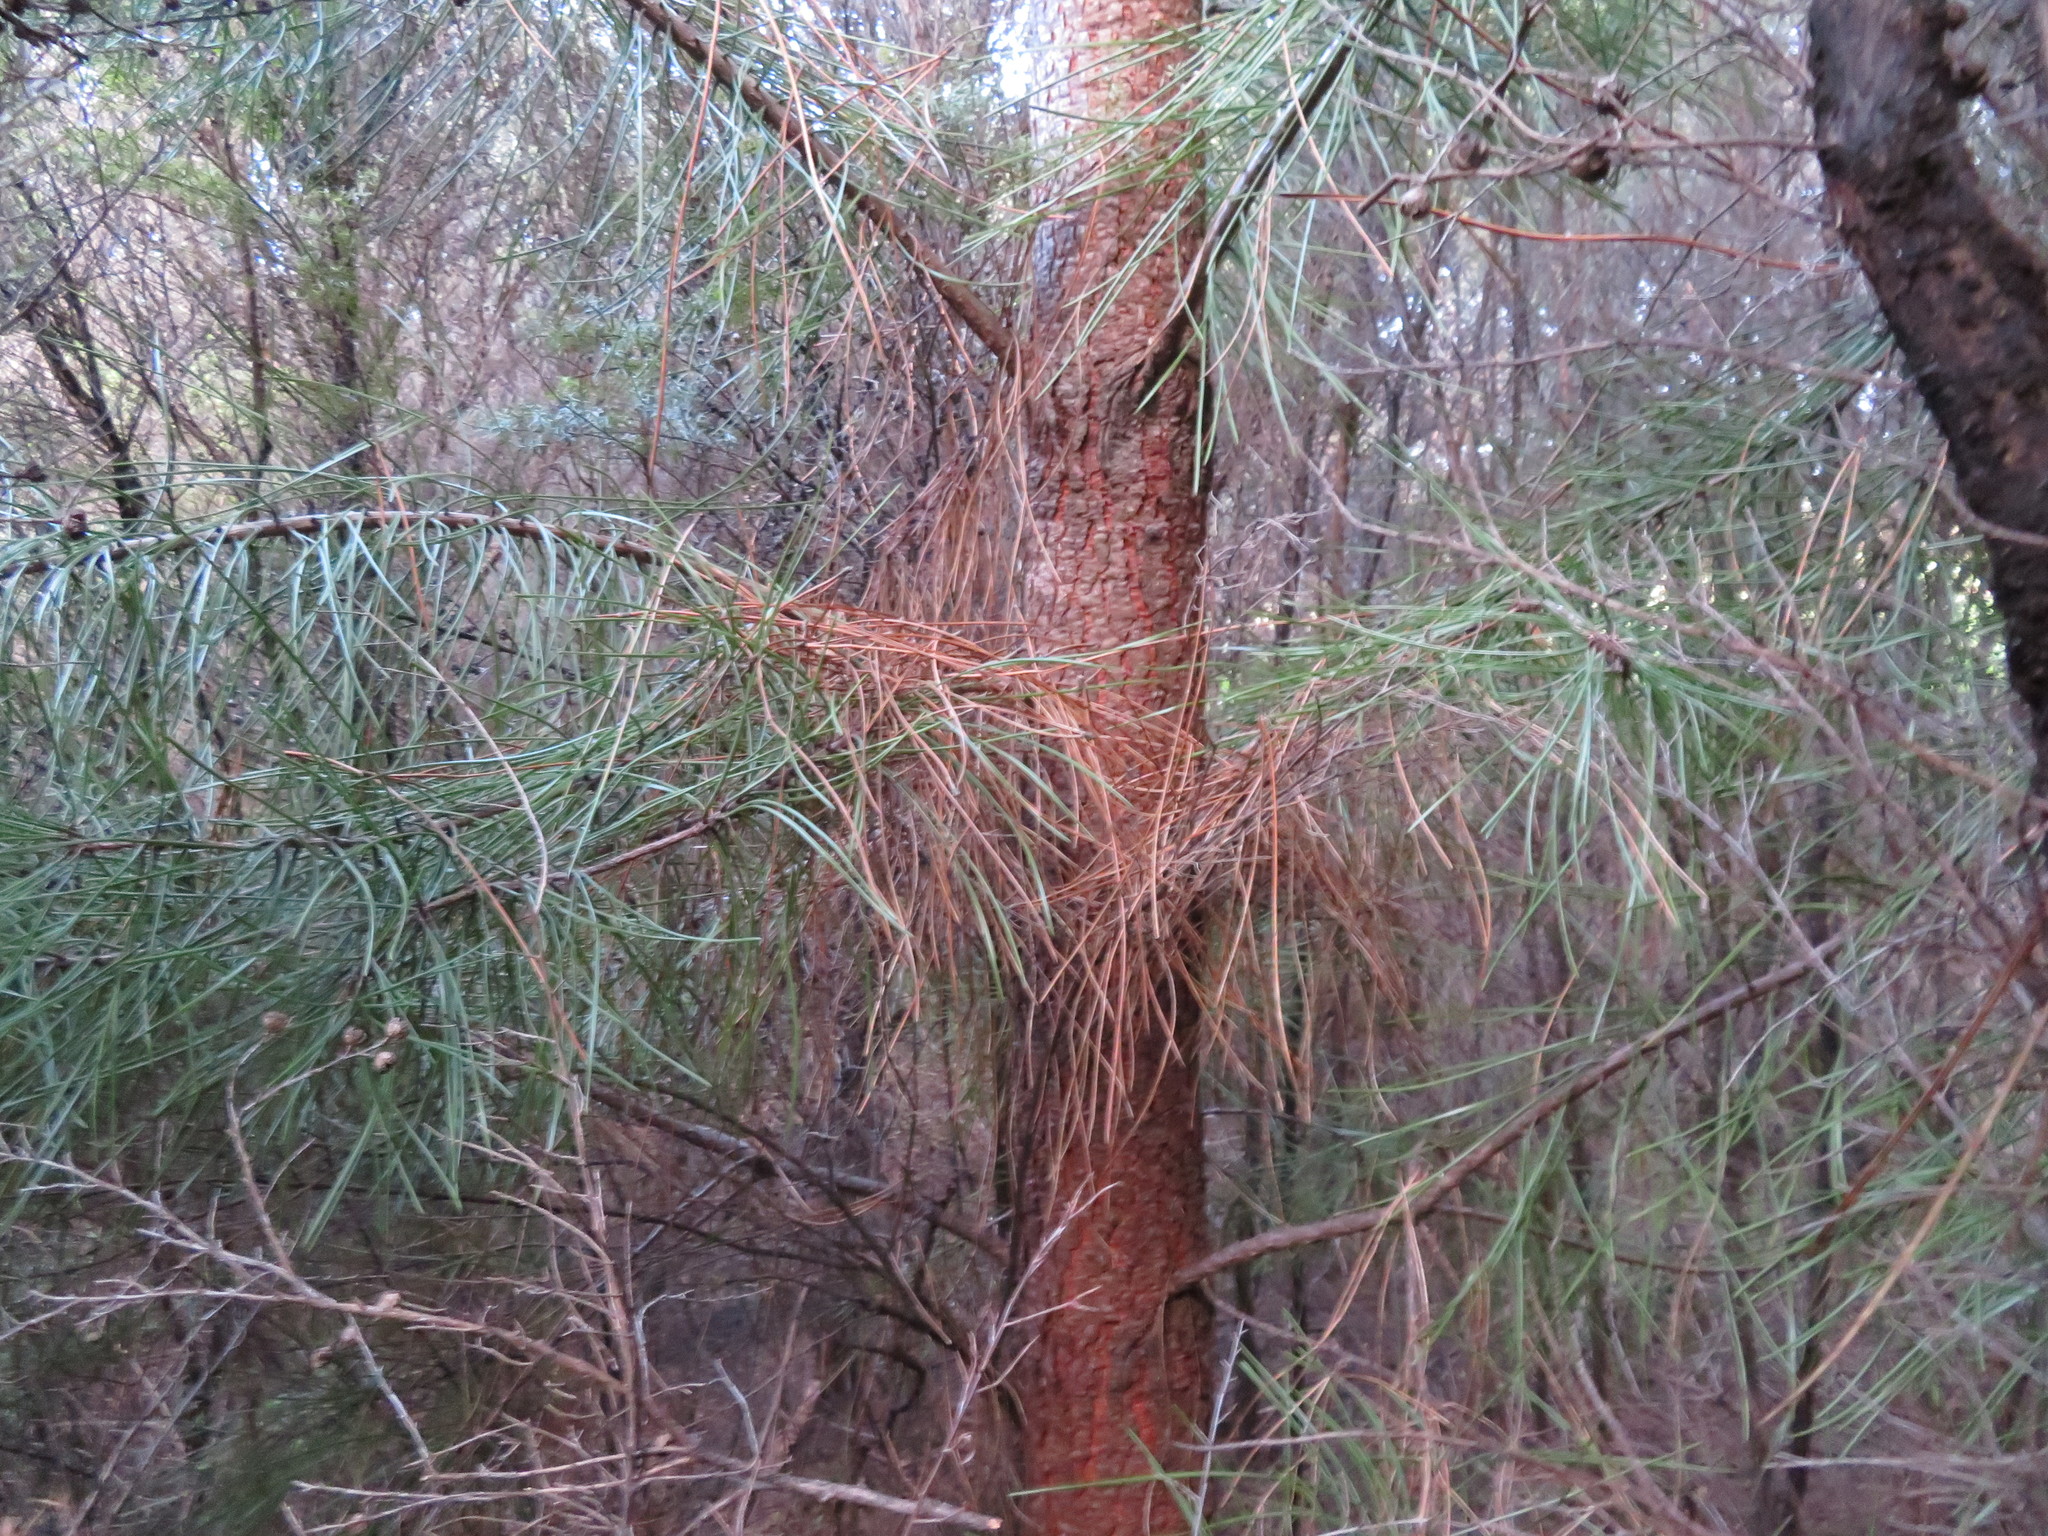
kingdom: Plantae
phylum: Tracheophyta
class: Pinopsida
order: Pinales
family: Pinaceae
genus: Pinus
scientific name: Pinus pinaster
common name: Maritime pine
